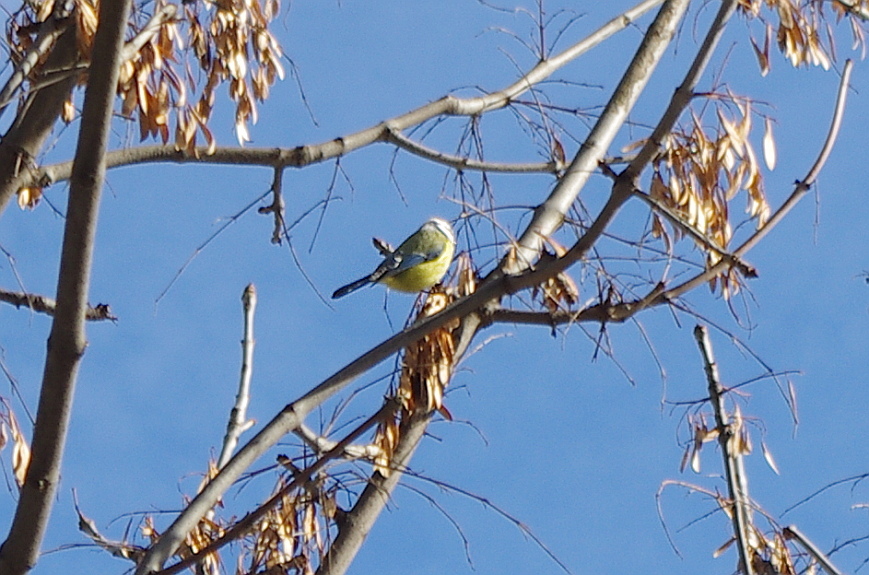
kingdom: Animalia
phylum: Chordata
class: Aves
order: Passeriformes
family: Paridae
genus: Cyanistes
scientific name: Cyanistes caeruleus
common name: Eurasian blue tit
